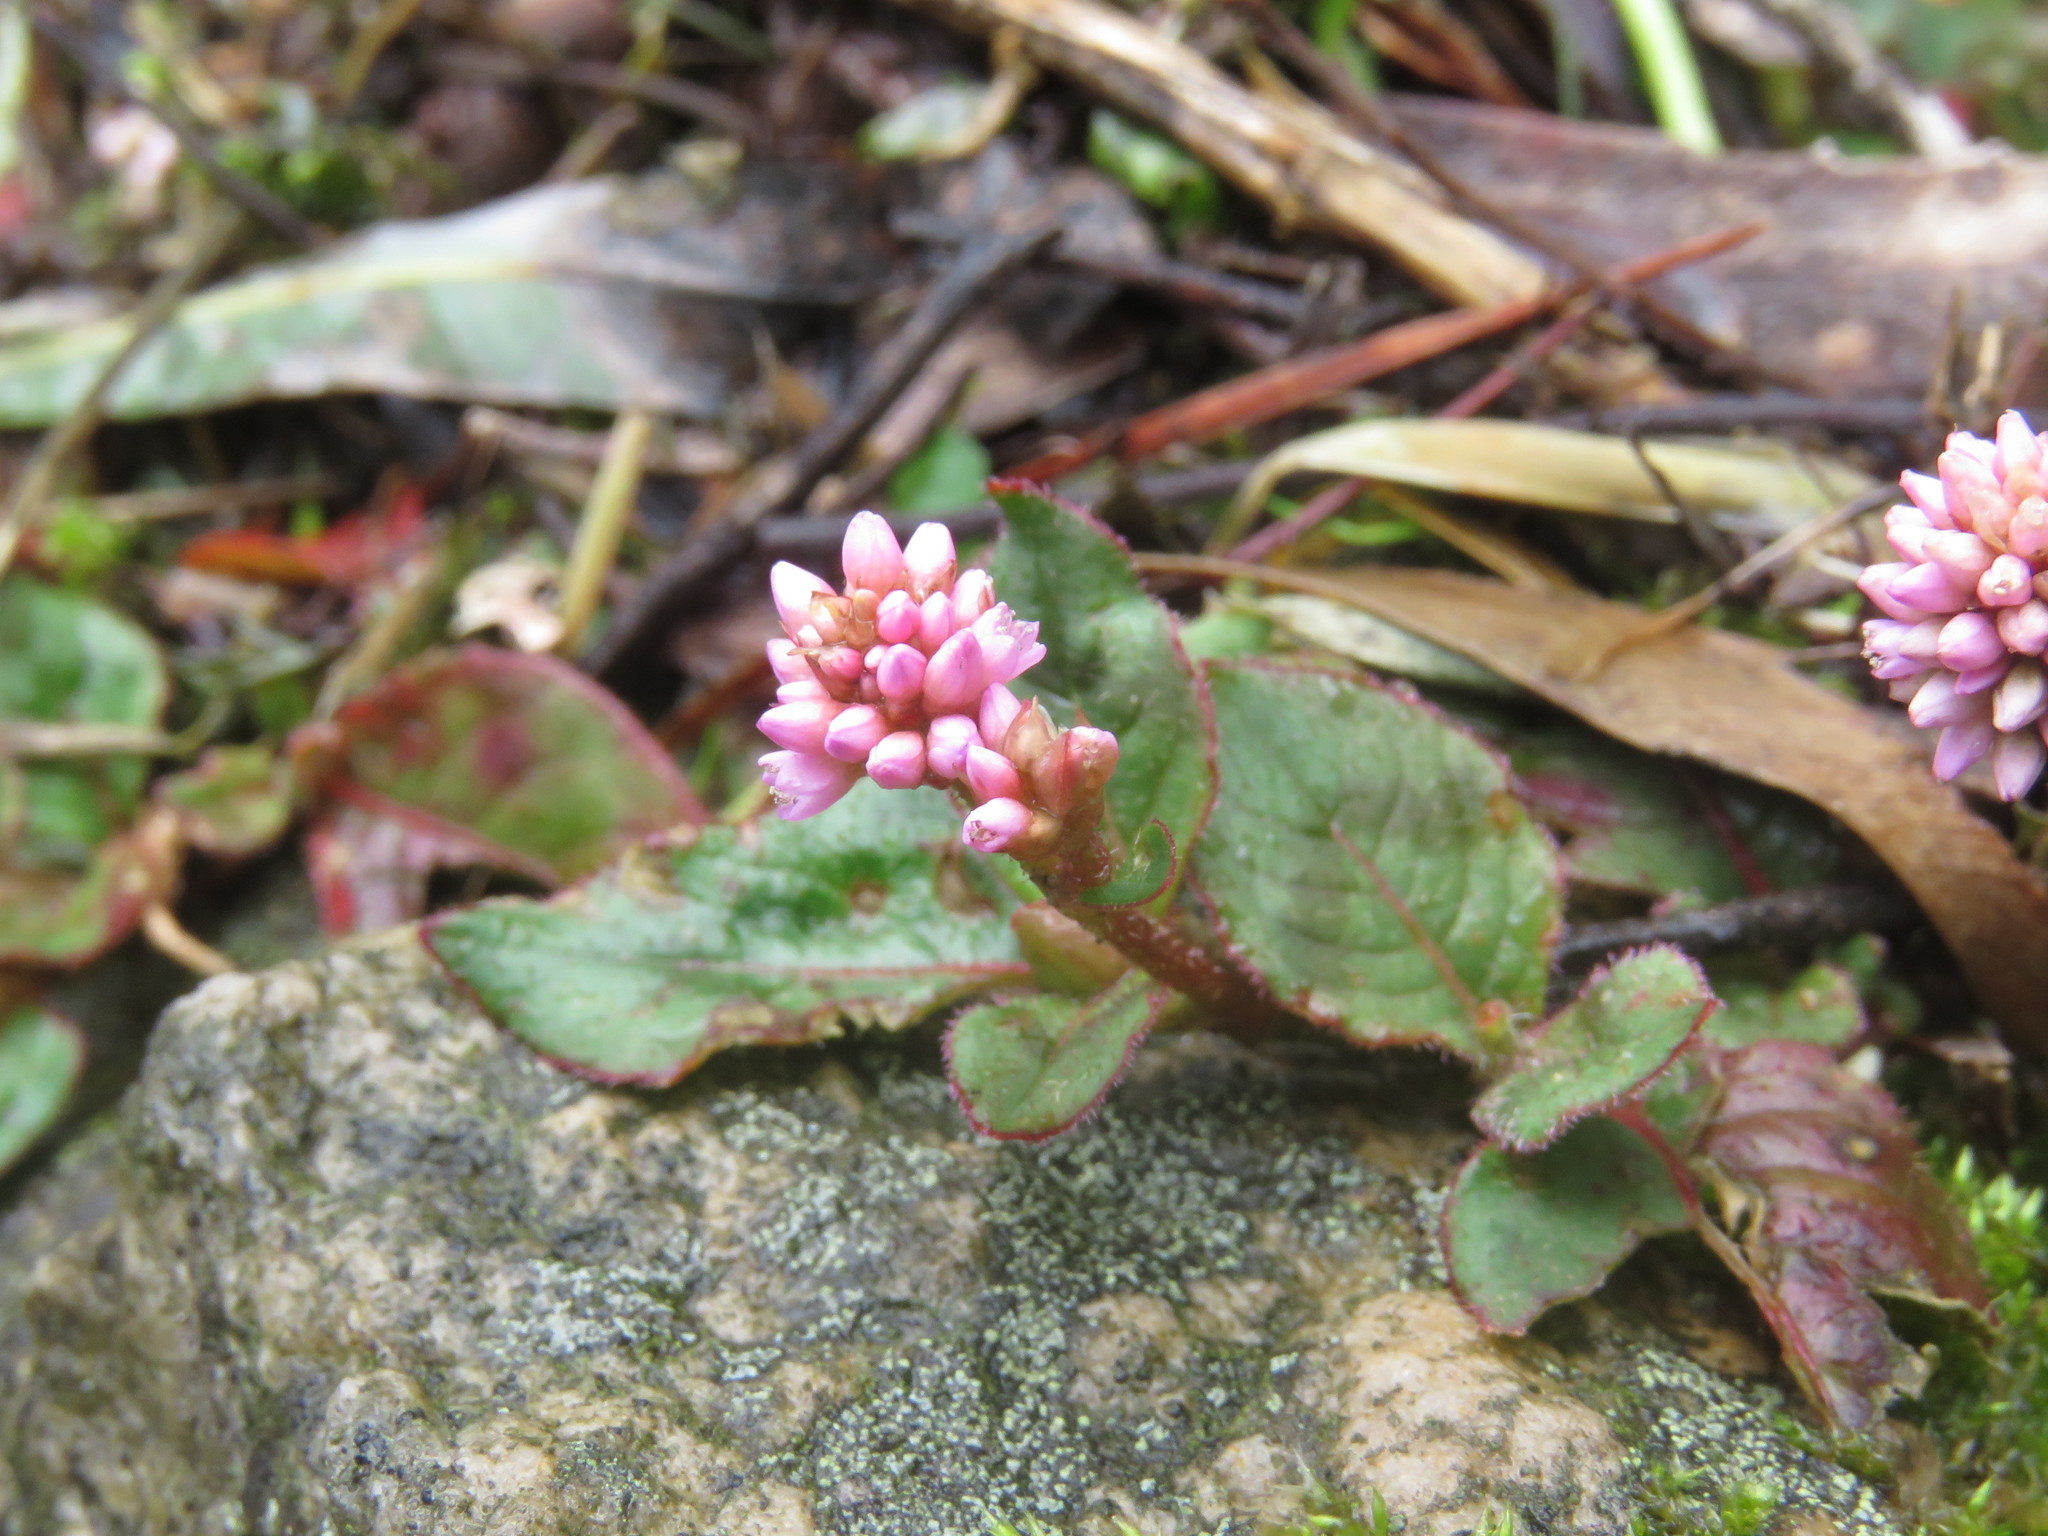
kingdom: Plantae
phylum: Tracheophyta
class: Magnoliopsida
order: Caryophyllales
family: Polygonaceae
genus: Persicaria
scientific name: Persicaria capitata
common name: Pinkhead smartweed
